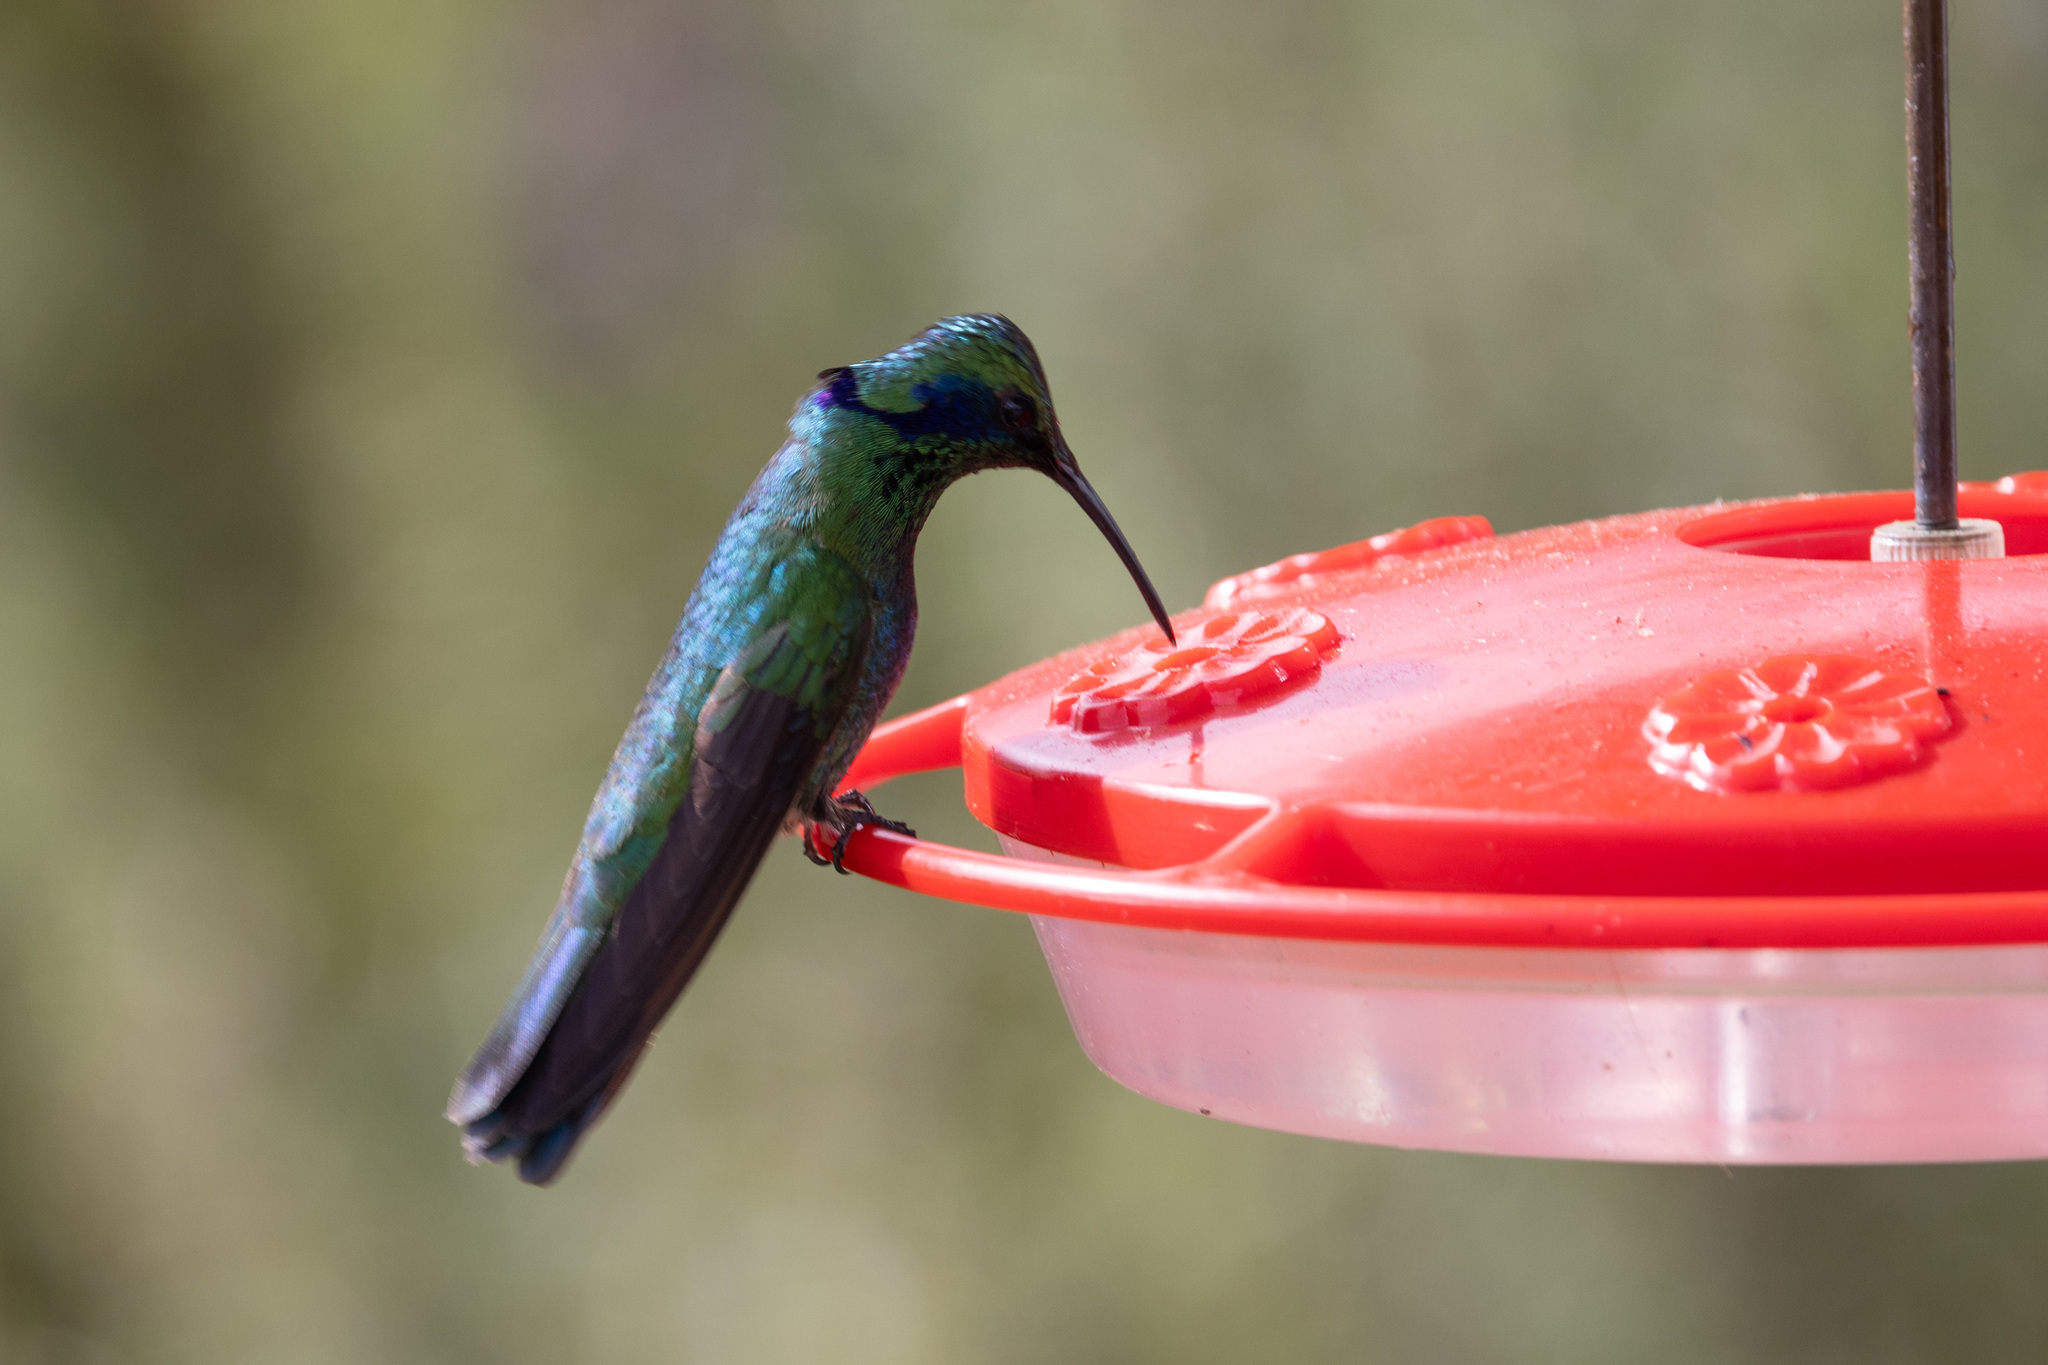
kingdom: Animalia
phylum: Chordata
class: Aves
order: Apodiformes
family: Trochilidae
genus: Colibri
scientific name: Colibri cyanotus
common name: Lesser violetear
